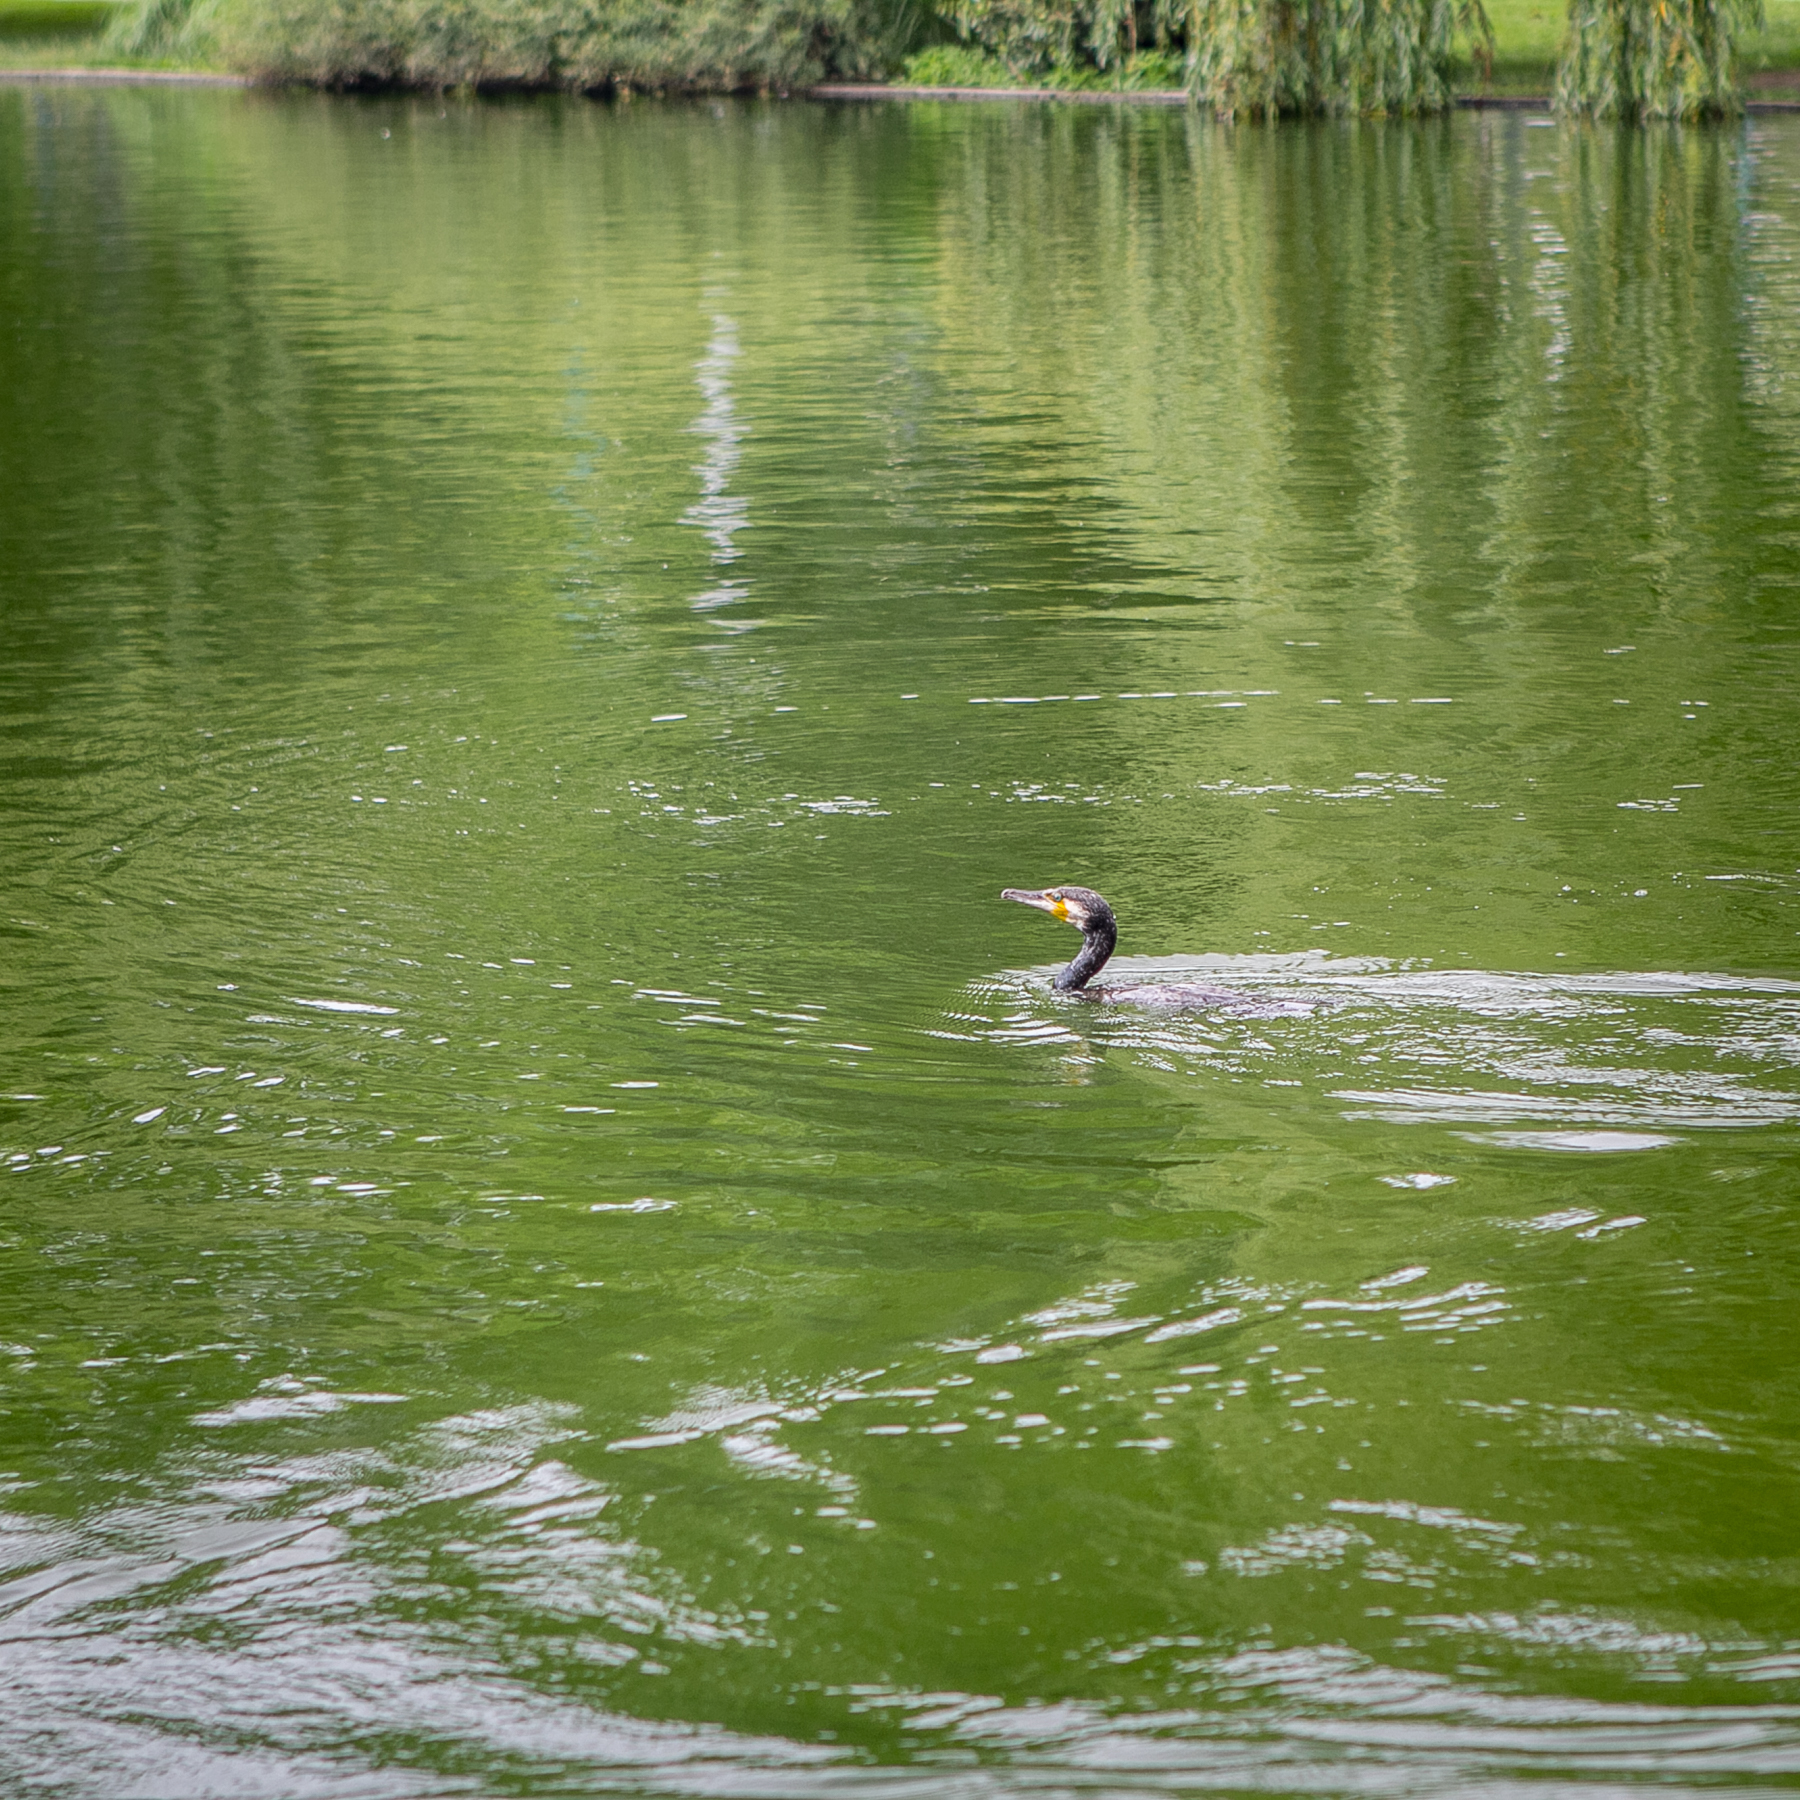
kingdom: Animalia
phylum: Chordata
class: Aves
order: Suliformes
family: Phalacrocoracidae
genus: Phalacrocorax
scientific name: Phalacrocorax carbo
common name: Great cormorant
